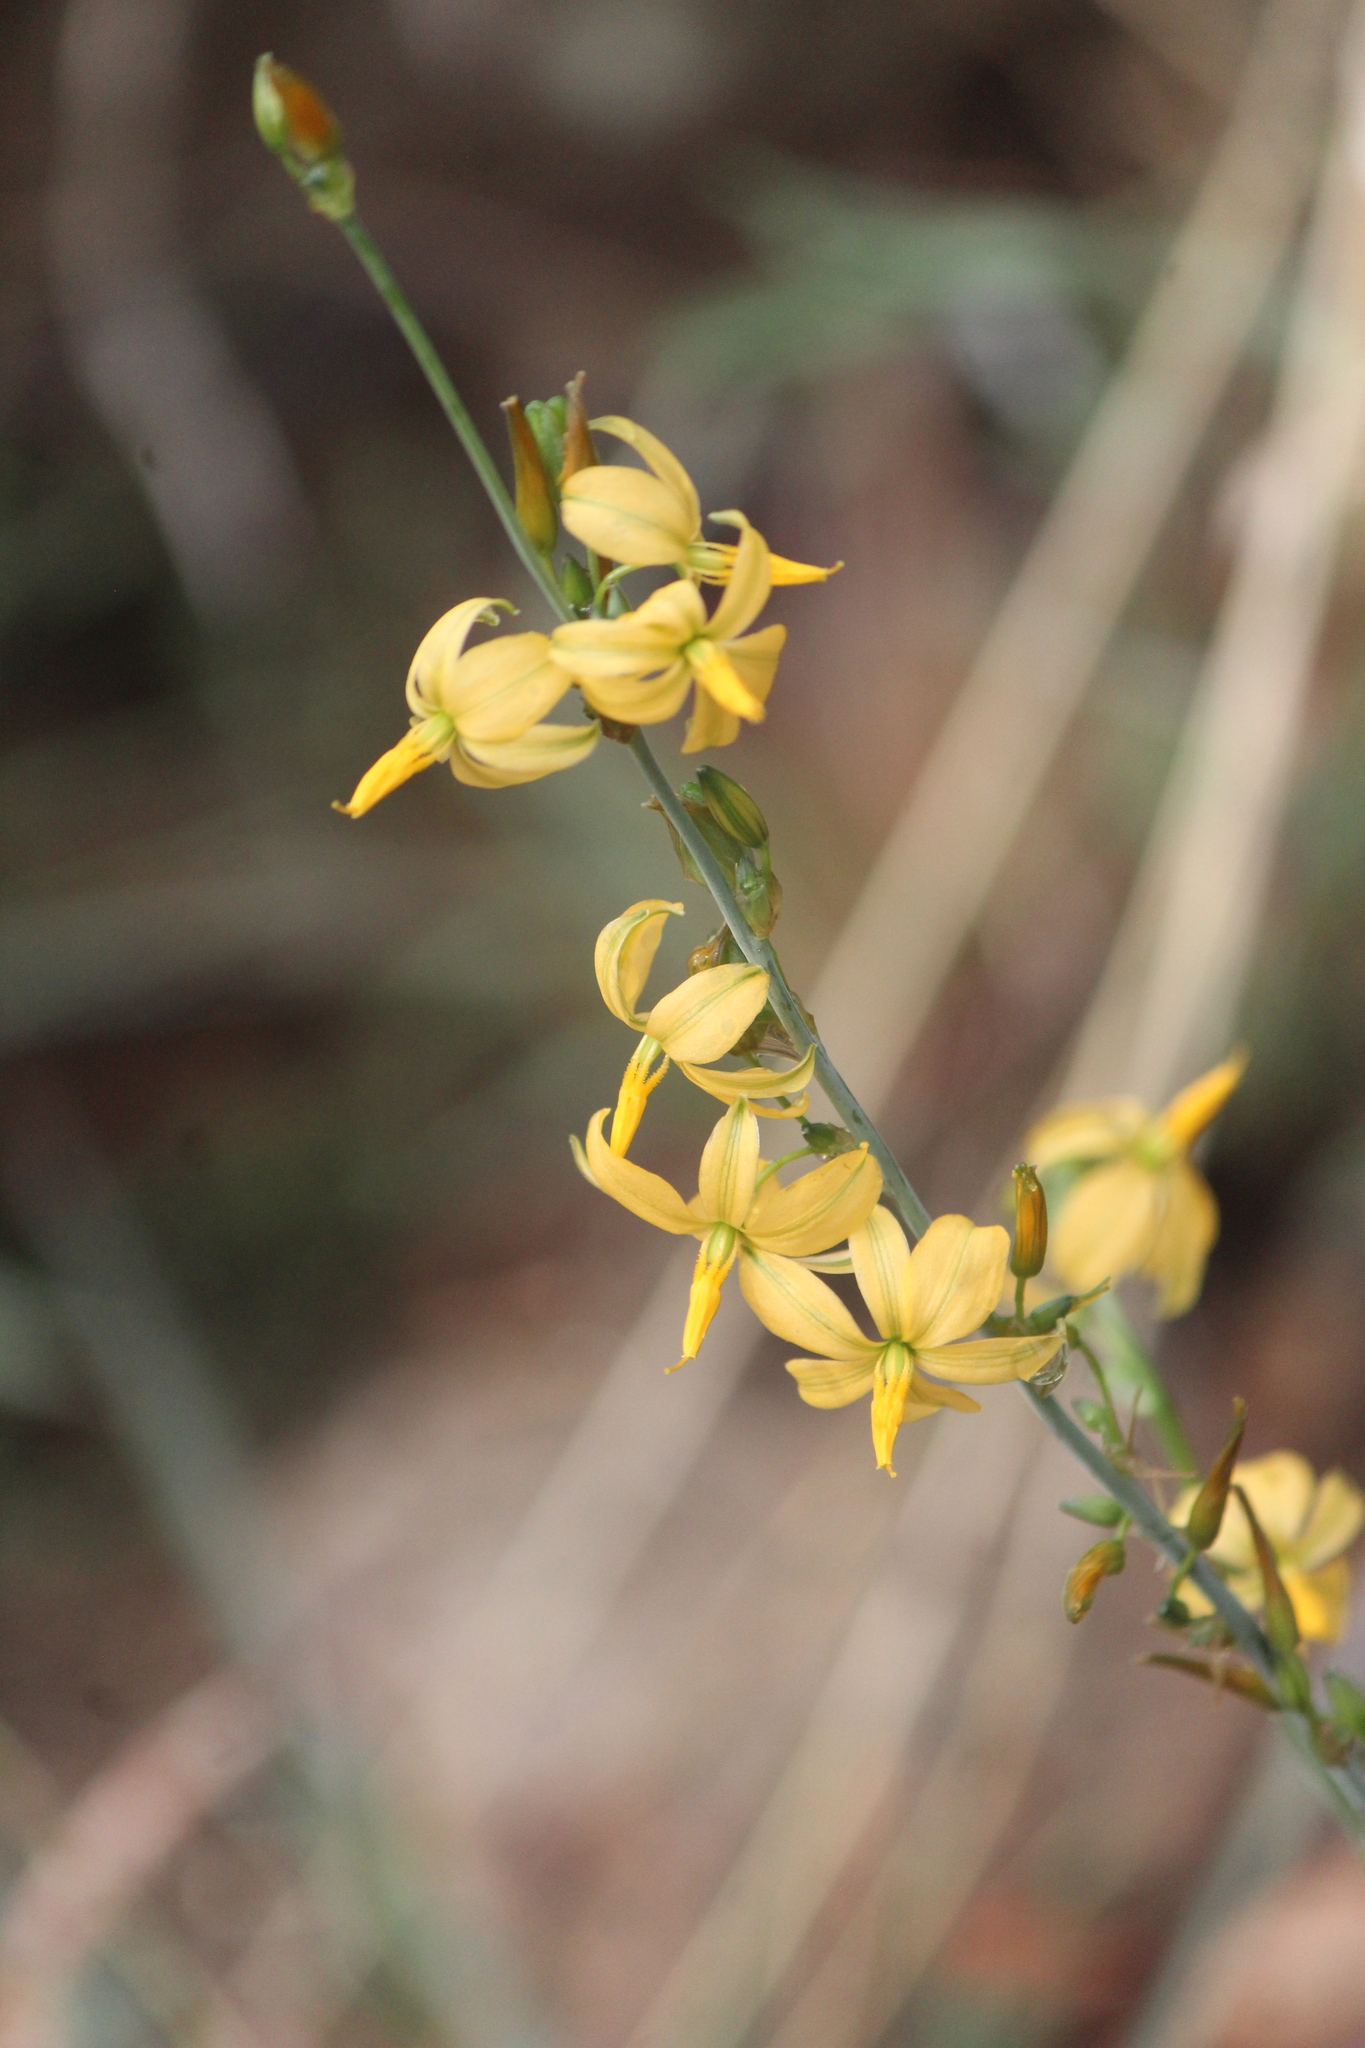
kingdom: Plantae
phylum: Tracheophyta
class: Liliopsida
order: Asparagales
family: Asparagaceae
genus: Echeandia
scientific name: Echeandia falcata
